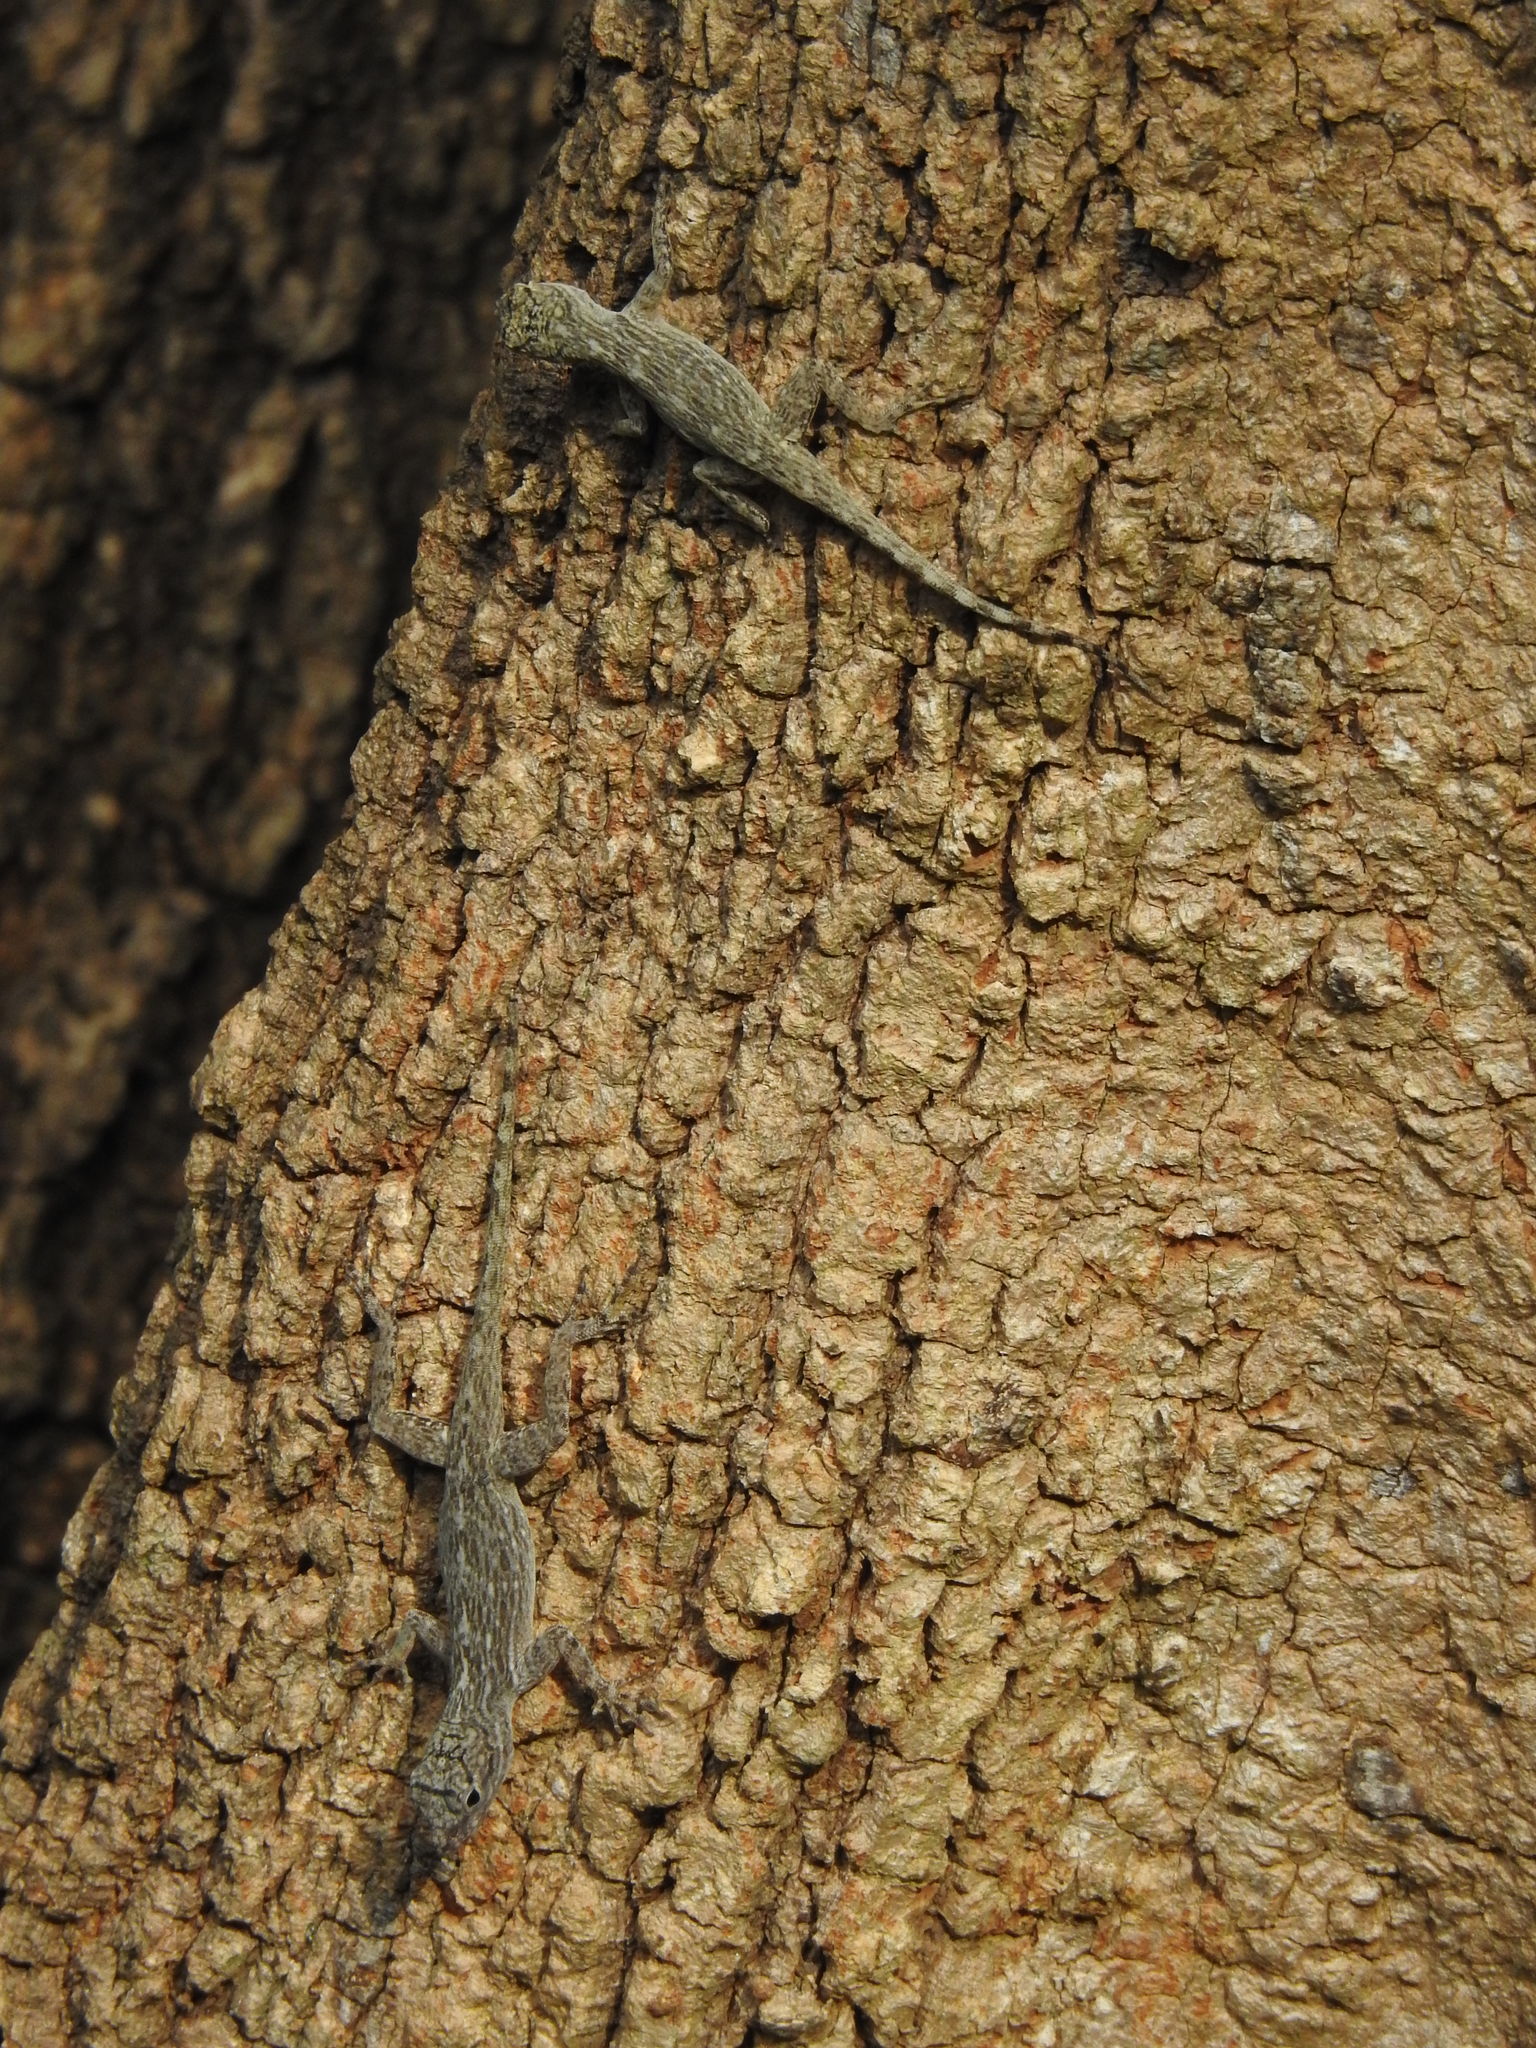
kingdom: Animalia
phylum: Chordata
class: Squamata
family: Dactyloidae
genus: Anolis
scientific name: Anolis distichus
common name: Bark anole
